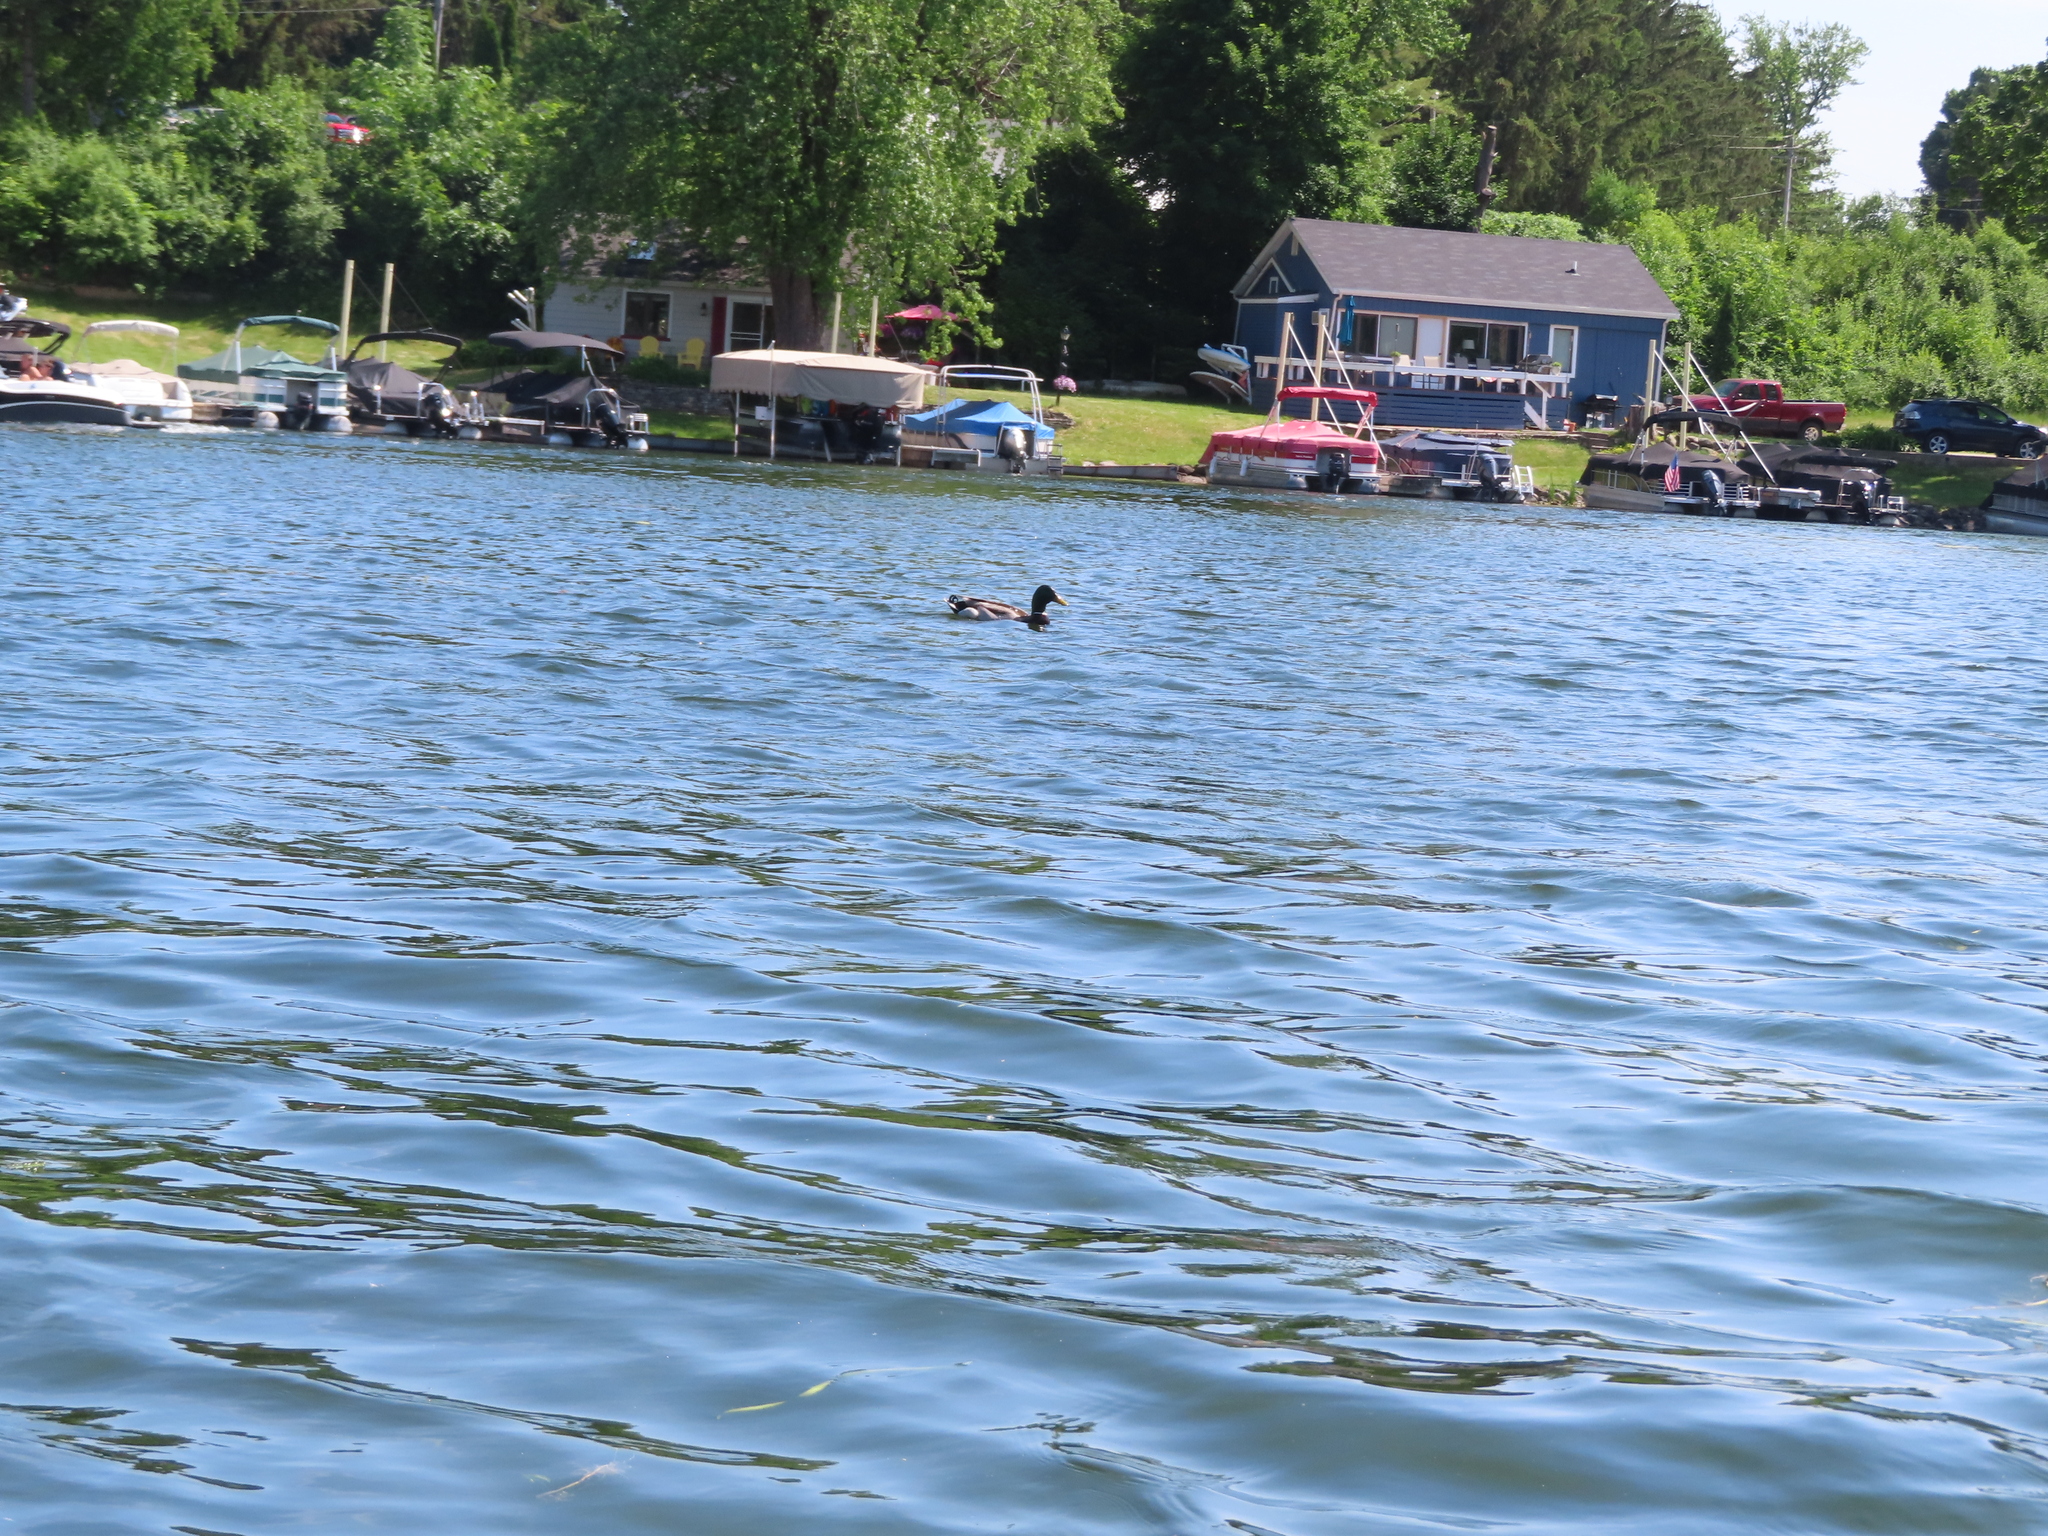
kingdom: Animalia
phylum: Chordata
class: Aves
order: Anseriformes
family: Anatidae
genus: Anas
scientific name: Anas platyrhynchos
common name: Mallard
